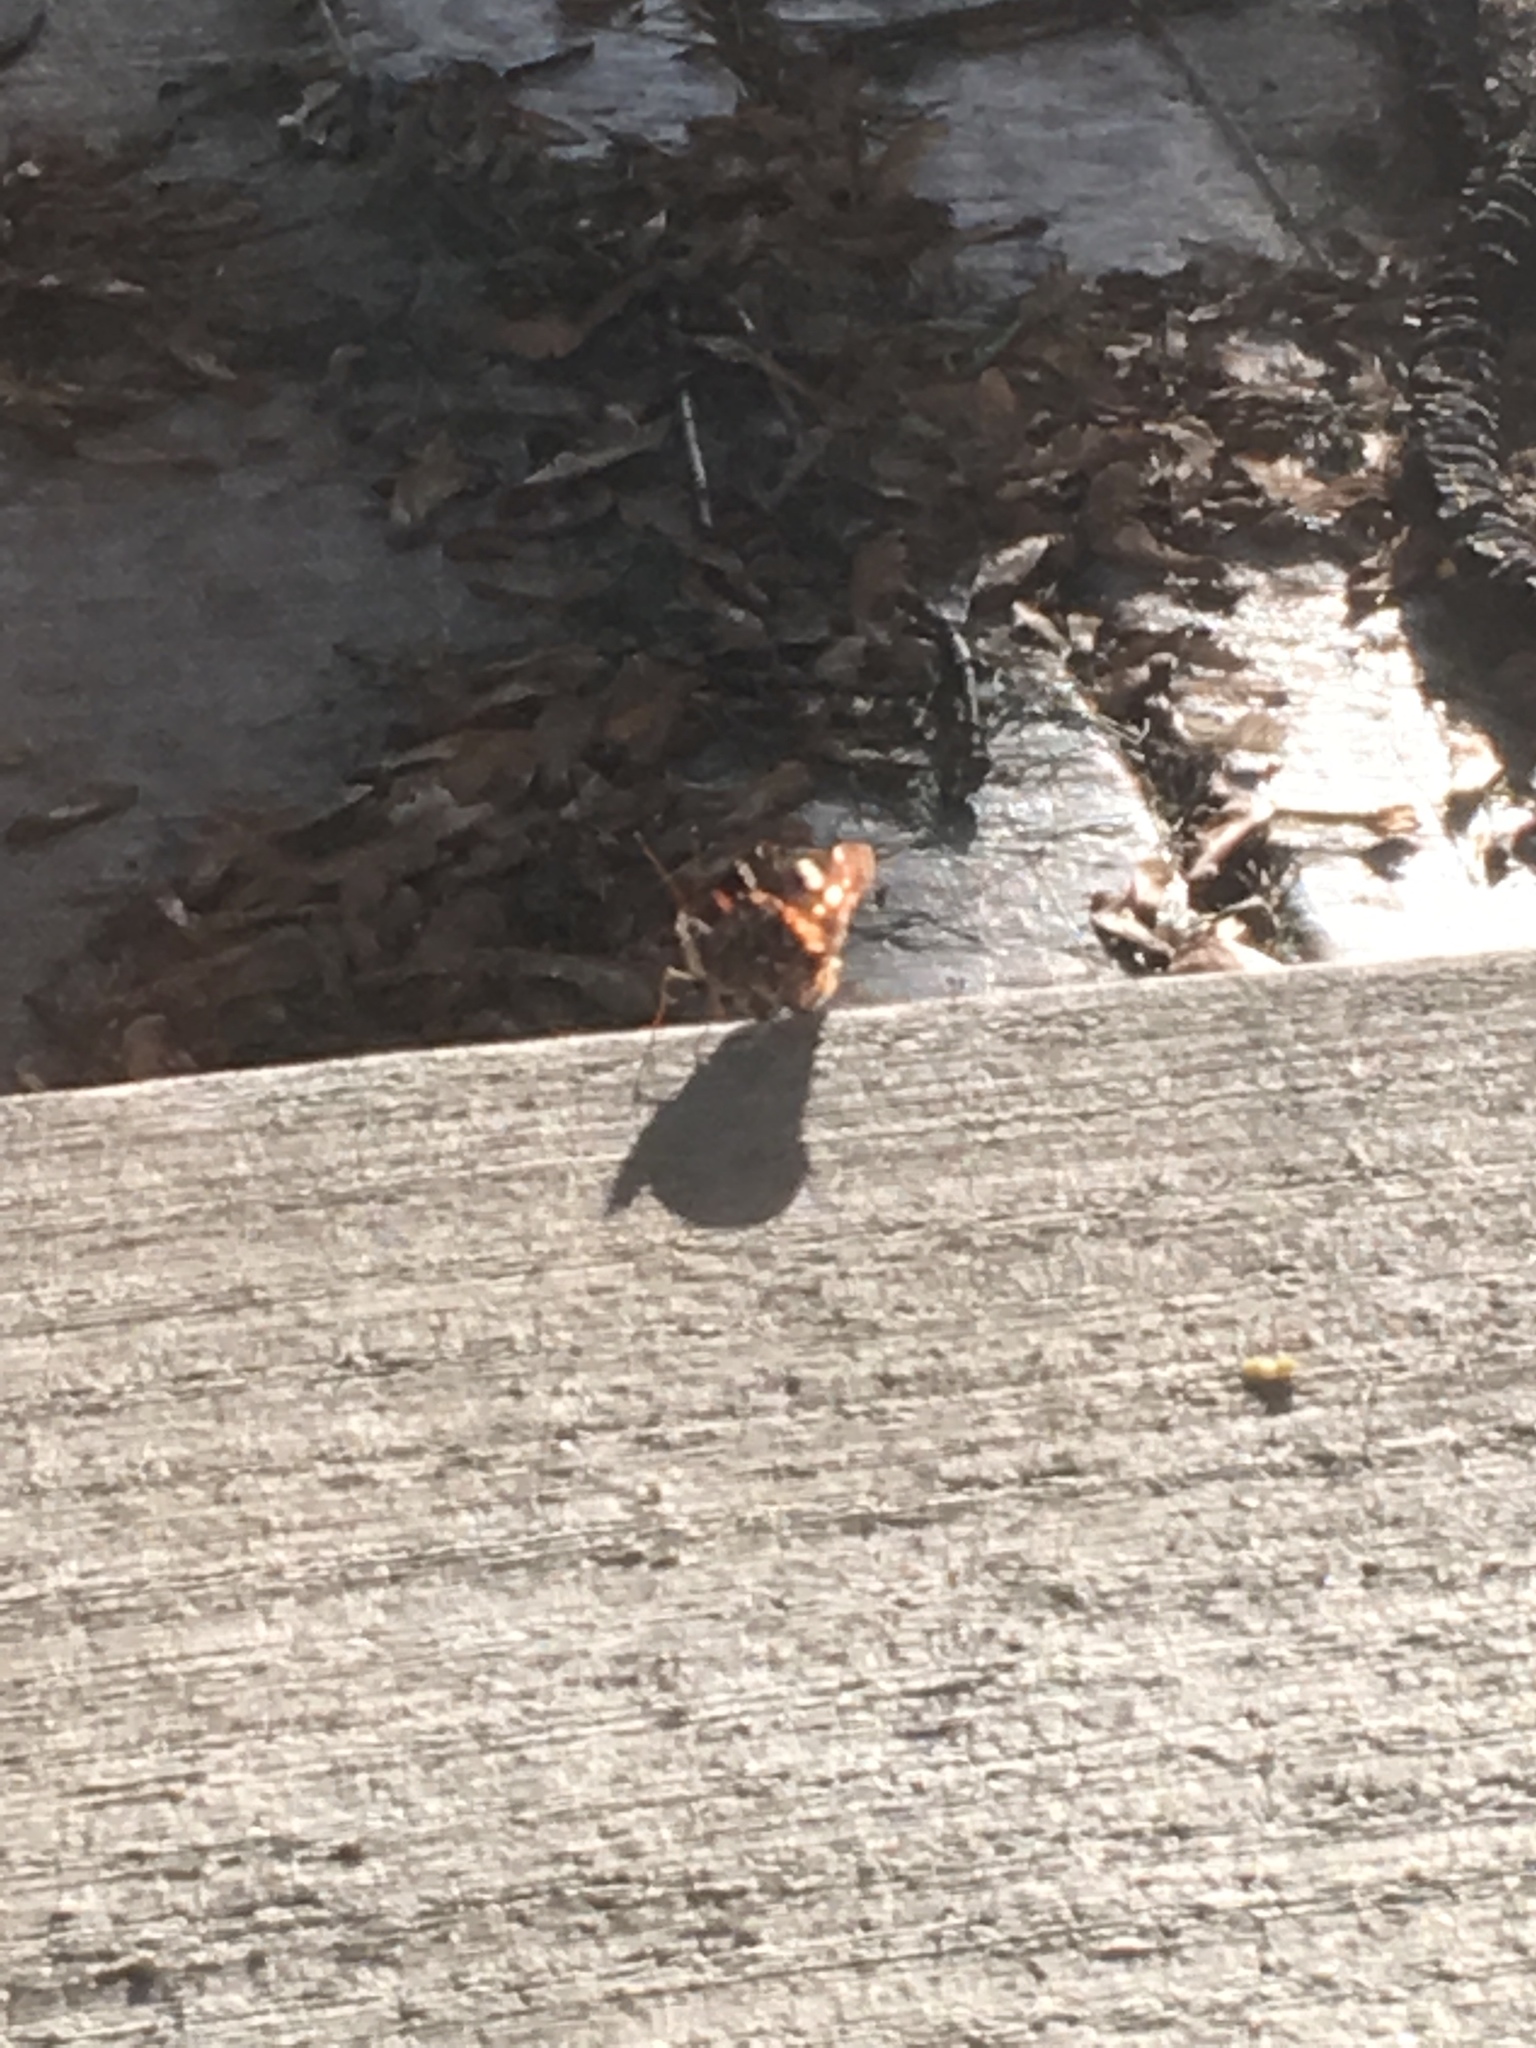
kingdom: Animalia
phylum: Arthropoda
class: Insecta
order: Lepidoptera
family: Nymphalidae
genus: Vanessa
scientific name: Vanessa atalanta
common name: Red admiral
